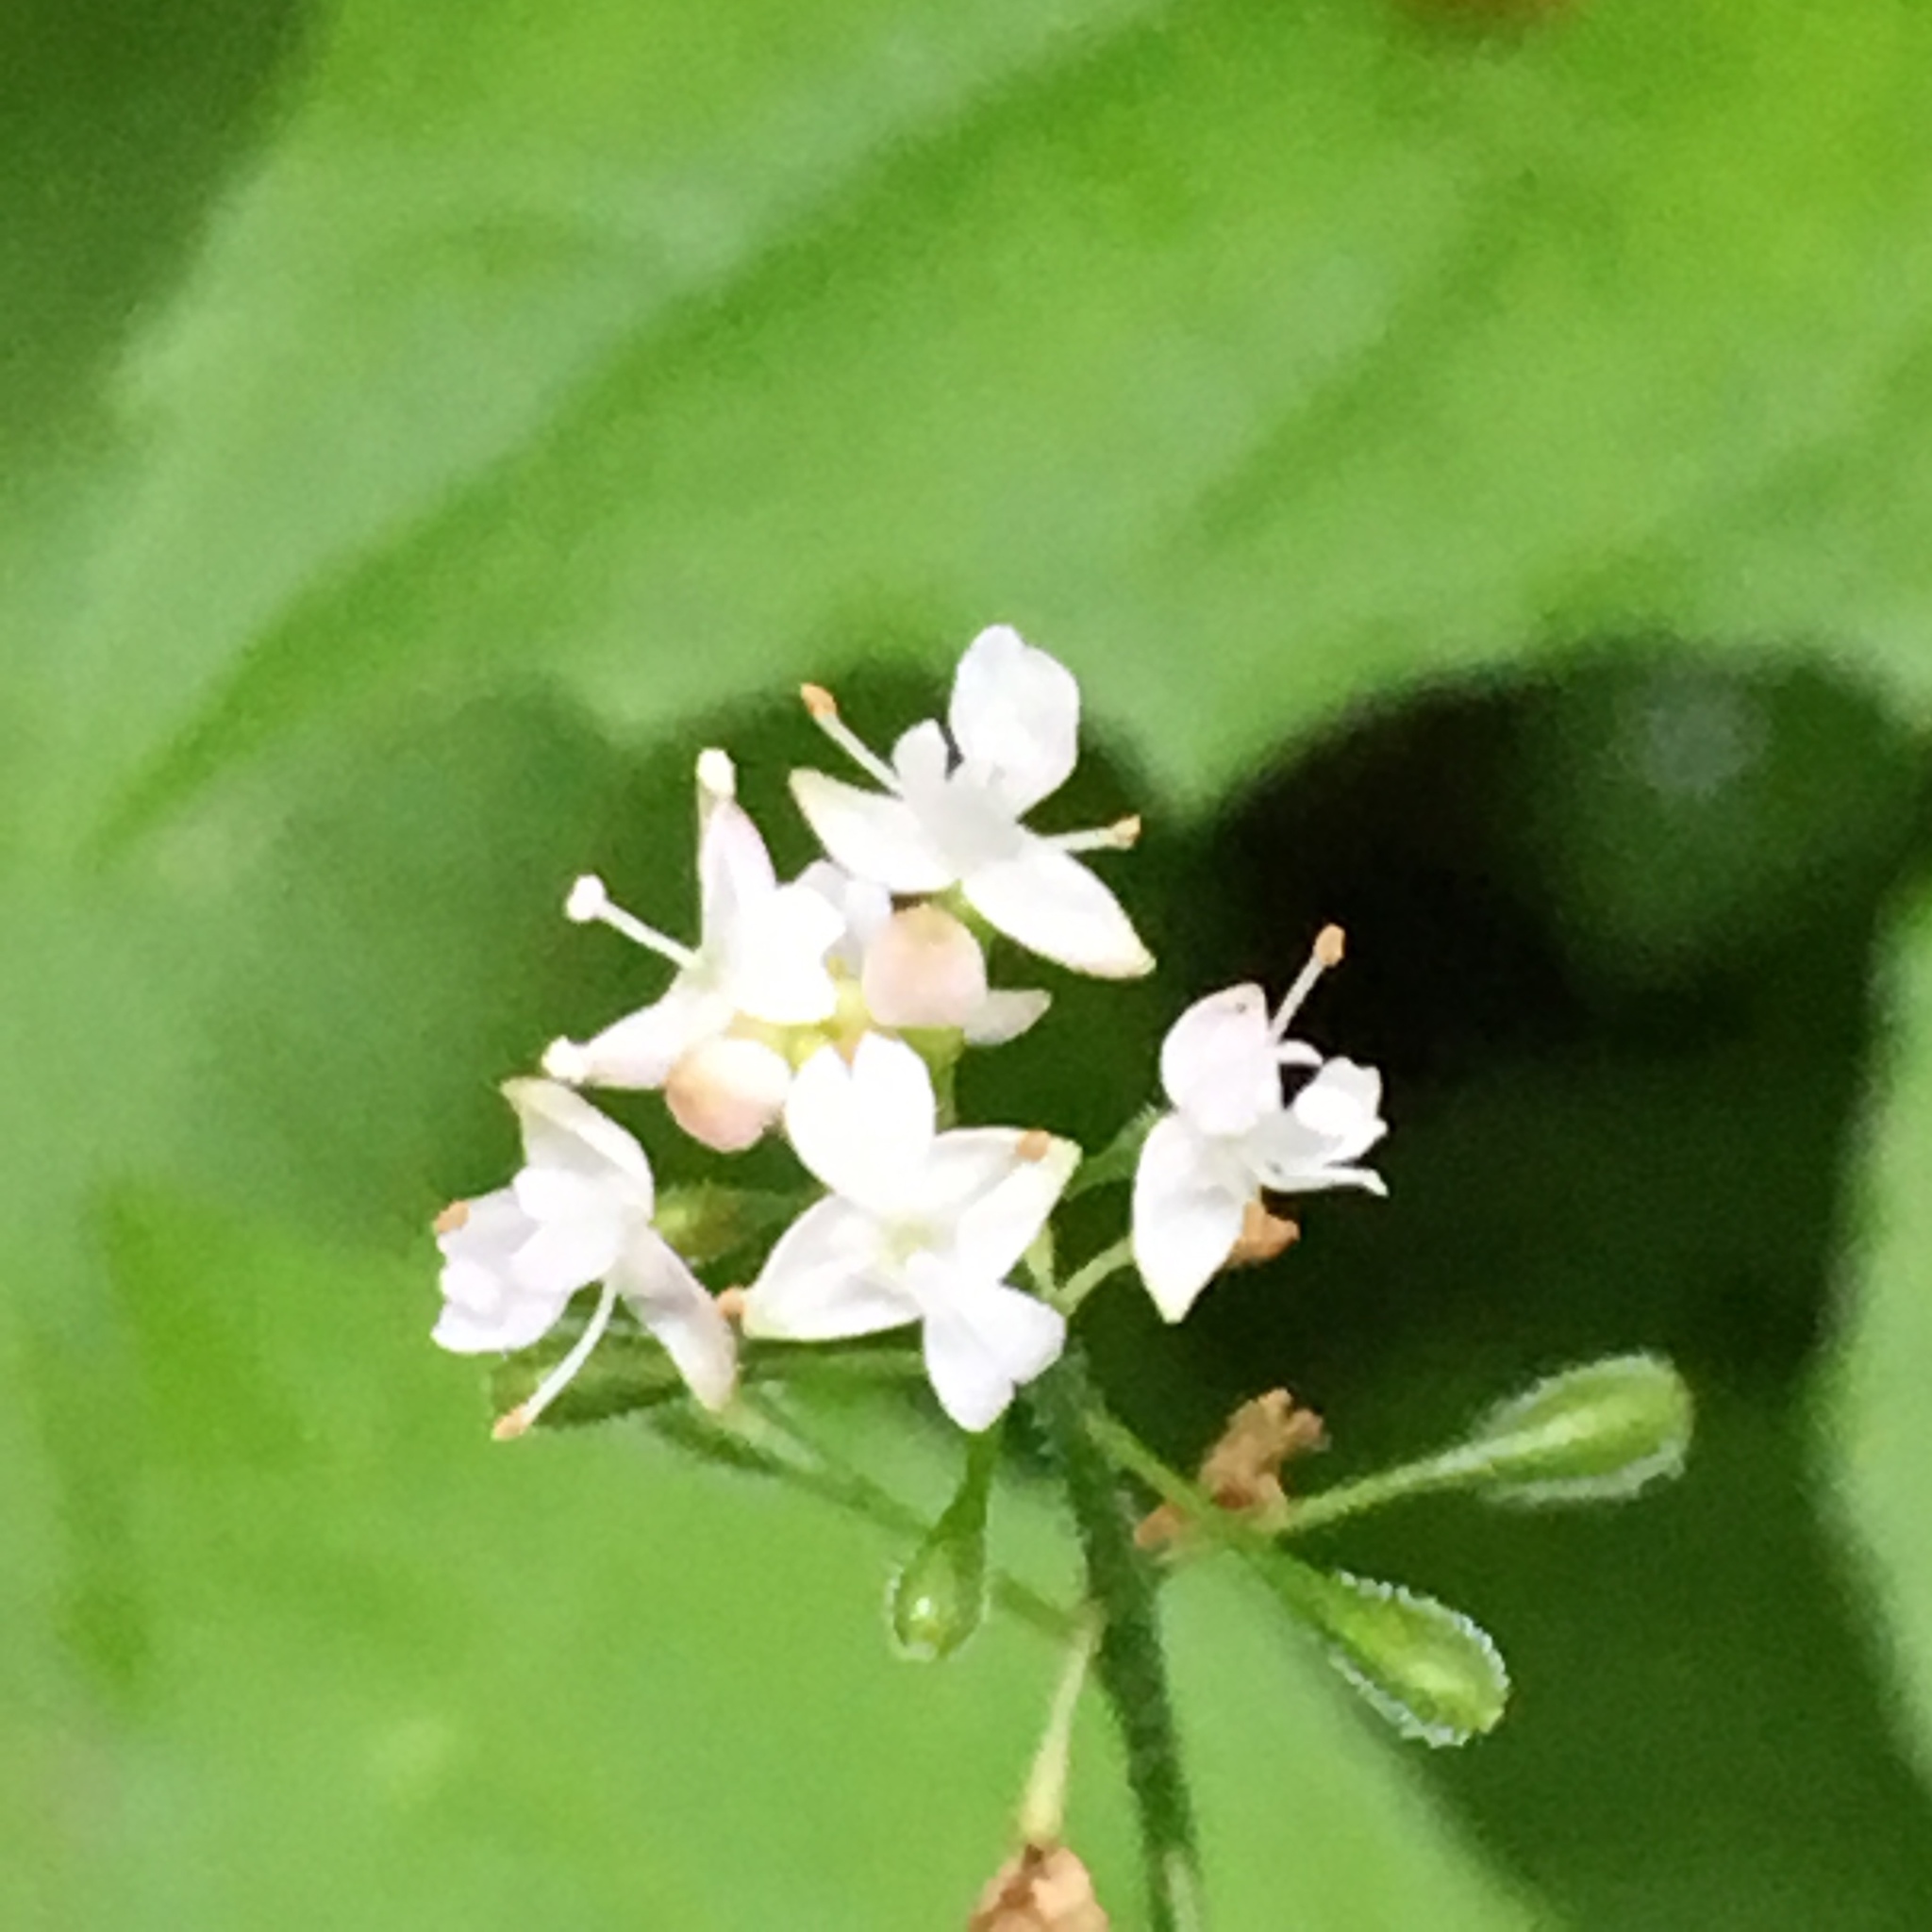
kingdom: Plantae
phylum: Tracheophyta
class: Magnoliopsida
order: Myrtales
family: Onagraceae
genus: Circaea
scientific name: Circaea alpina
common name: Alpine enchanter's-nightshade
